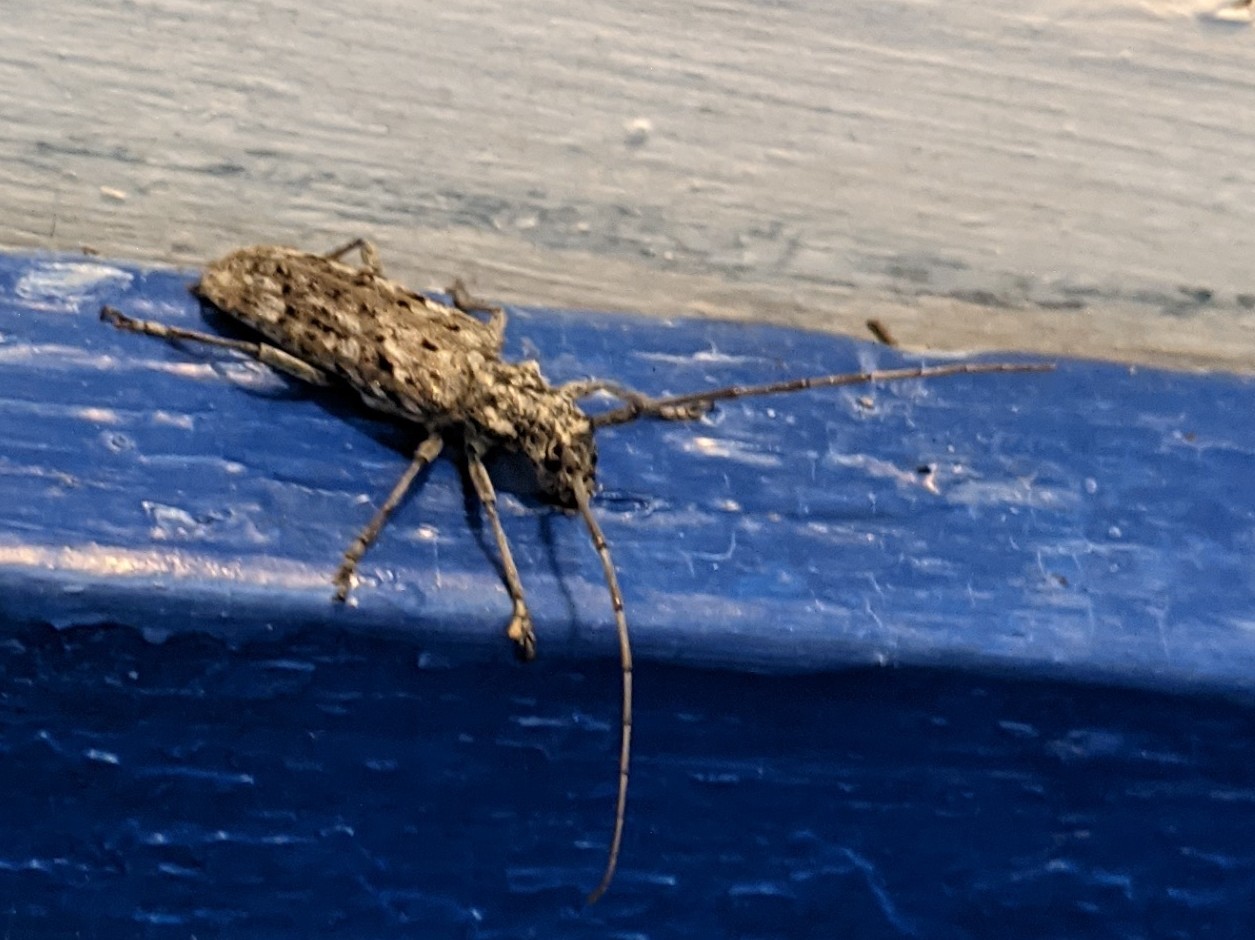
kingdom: Animalia
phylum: Arthropoda
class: Insecta
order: Coleoptera
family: Cerambycidae
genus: Monochamus
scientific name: Monochamus notatus
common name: Northeastern pine sawyer beetle
